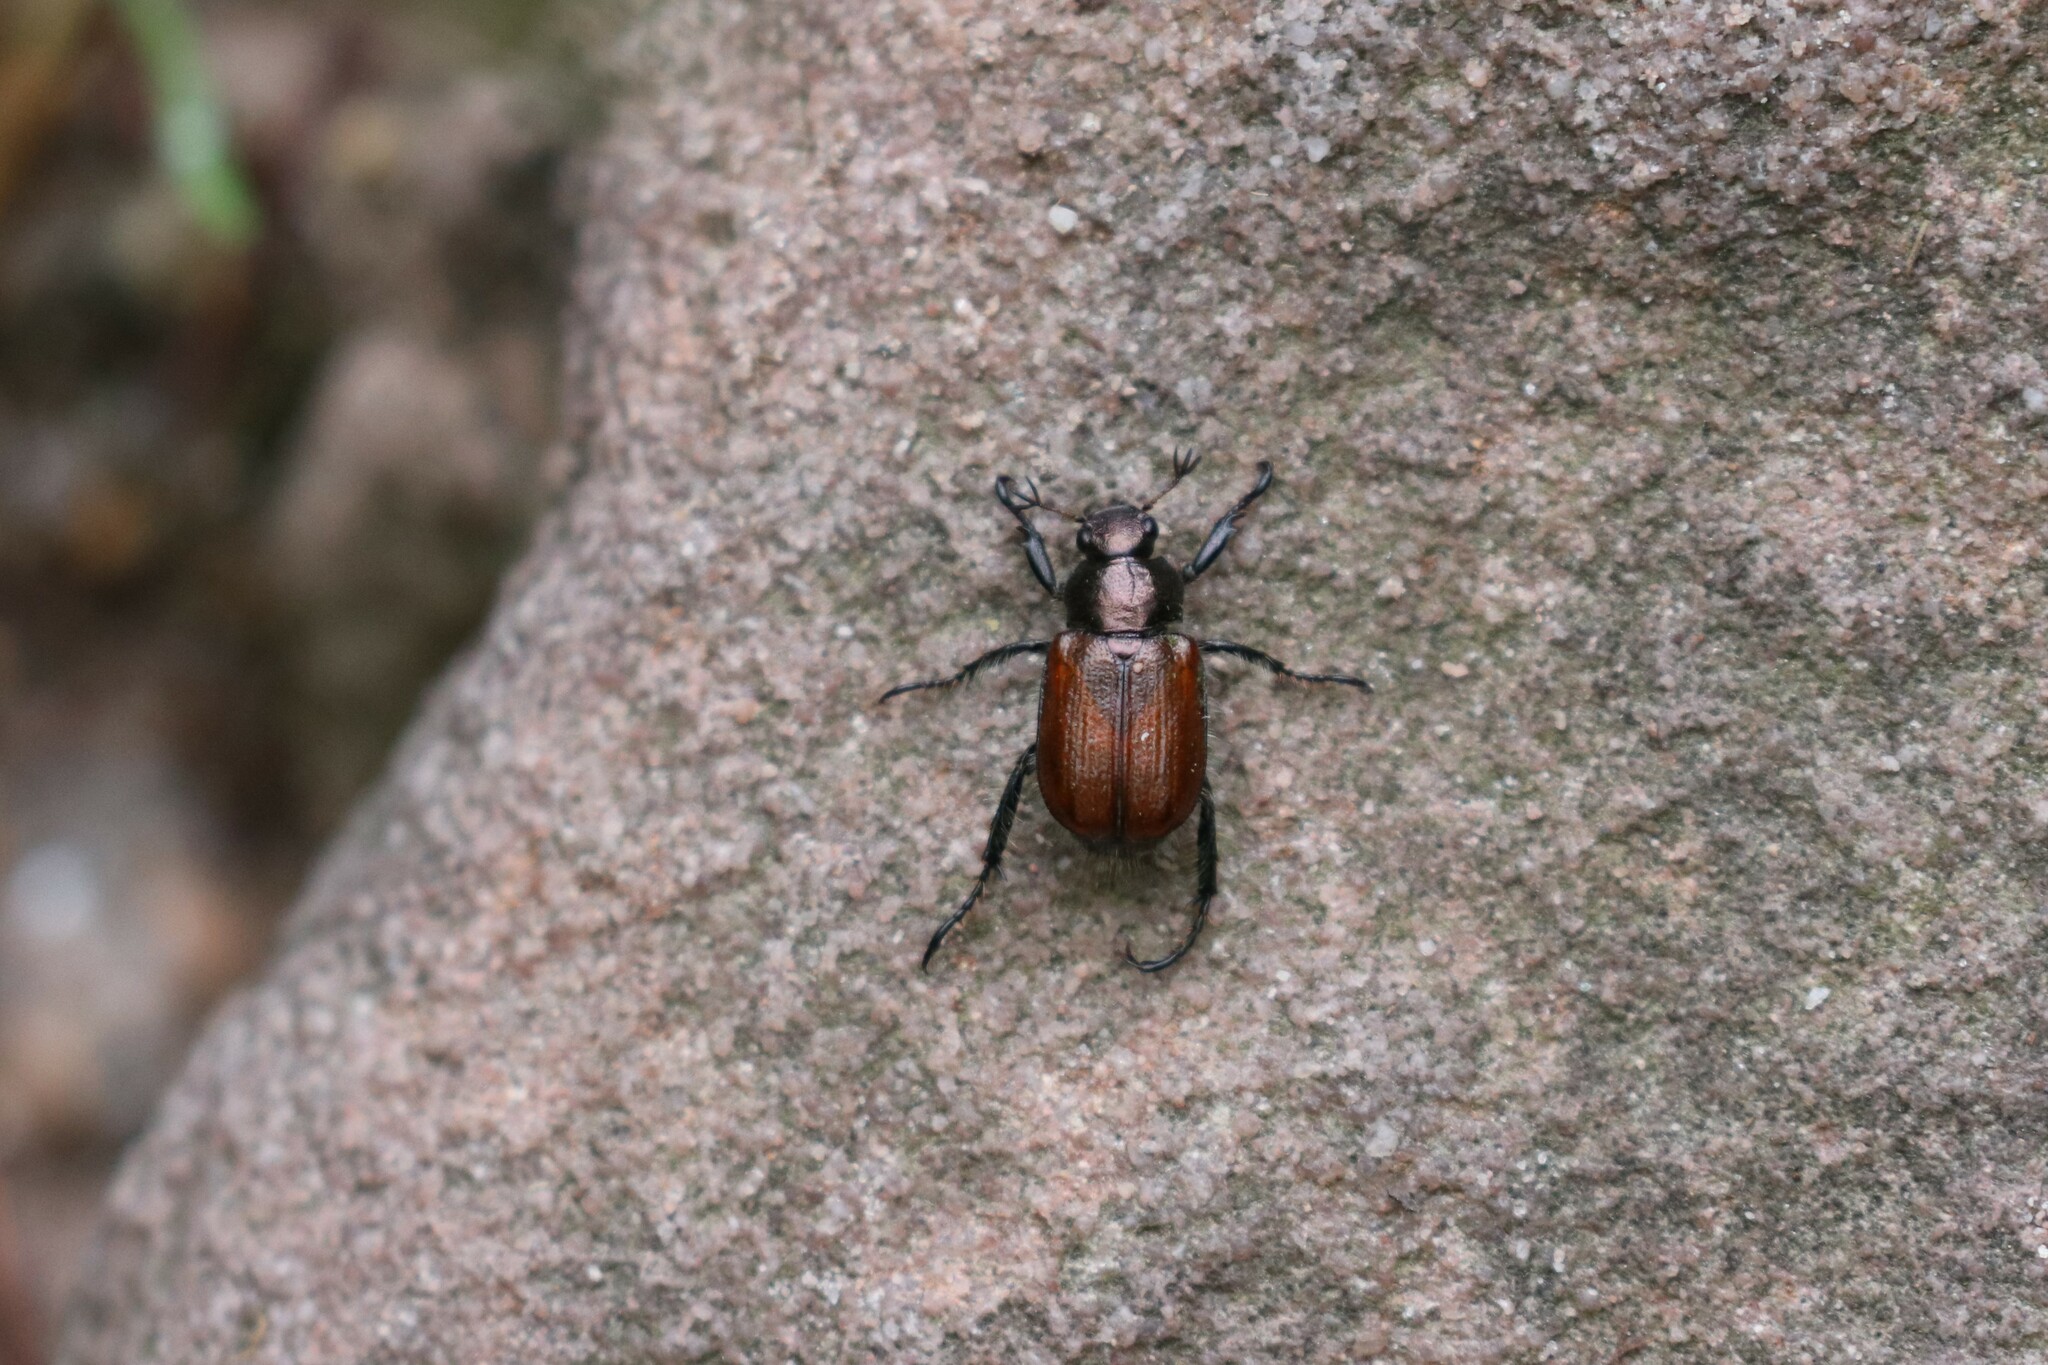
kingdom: Animalia
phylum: Arthropoda
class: Insecta
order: Coleoptera
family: Scarabaeidae
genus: Phyllopertha
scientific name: Phyllopertha horticola
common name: Garden chafer
